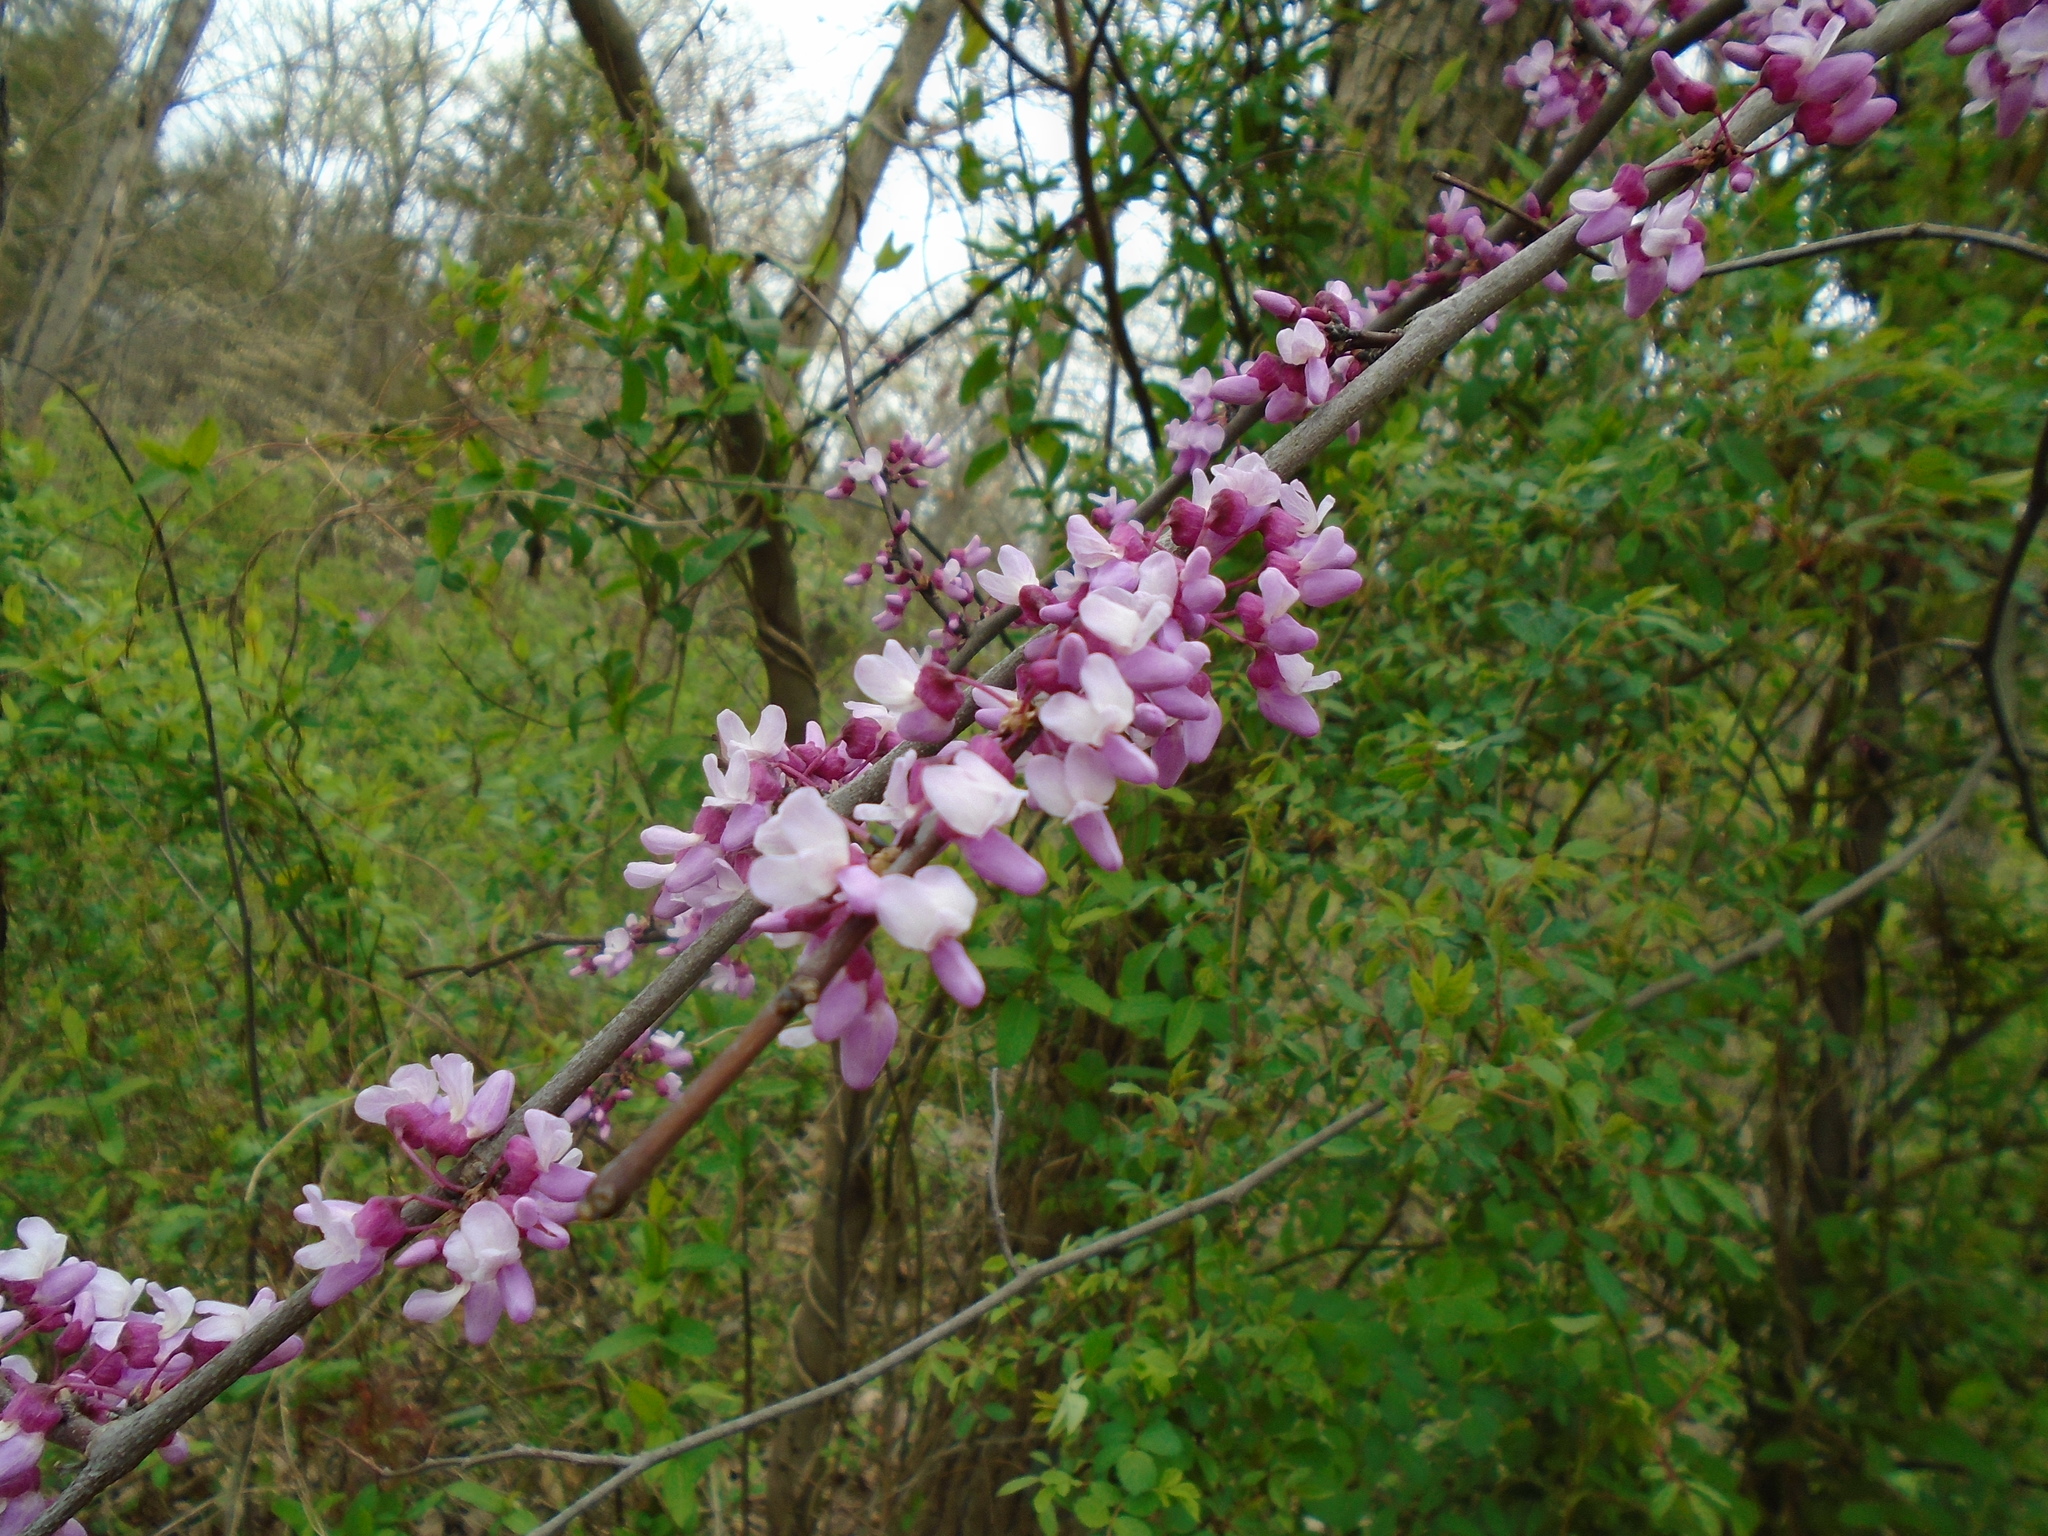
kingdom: Plantae
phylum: Tracheophyta
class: Magnoliopsida
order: Fabales
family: Fabaceae
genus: Cercis
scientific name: Cercis canadensis
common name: Eastern redbud
